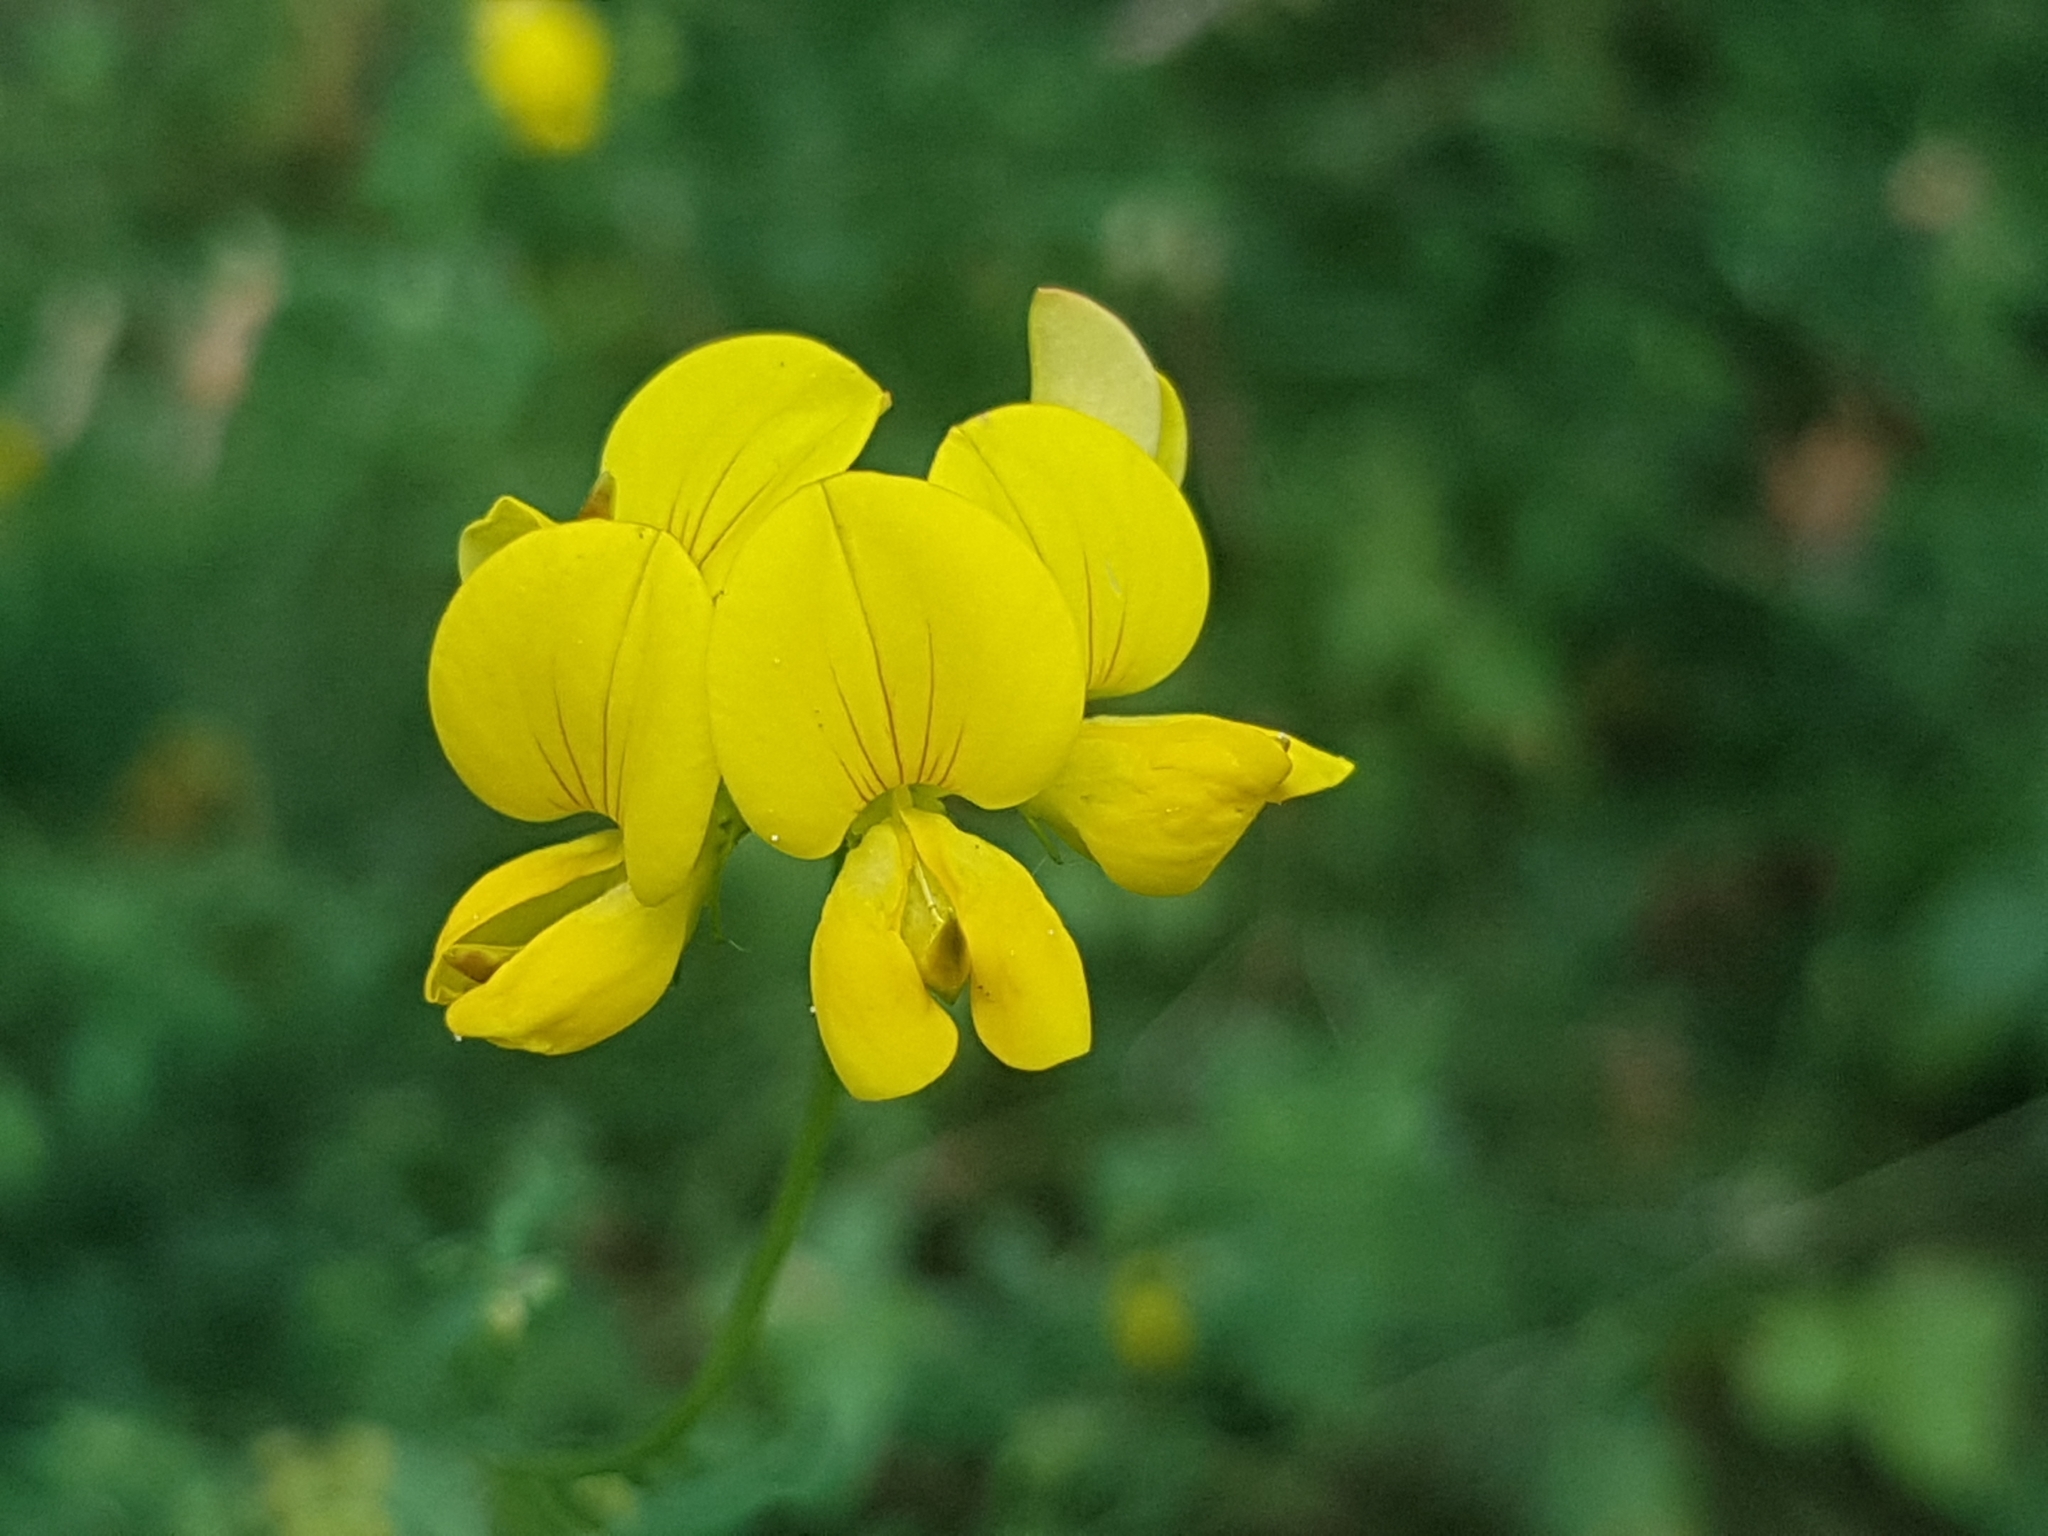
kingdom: Plantae
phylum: Tracheophyta
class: Magnoliopsida
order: Fabales
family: Fabaceae
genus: Lotus
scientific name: Lotus corniculatus
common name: Common bird's-foot-trefoil
